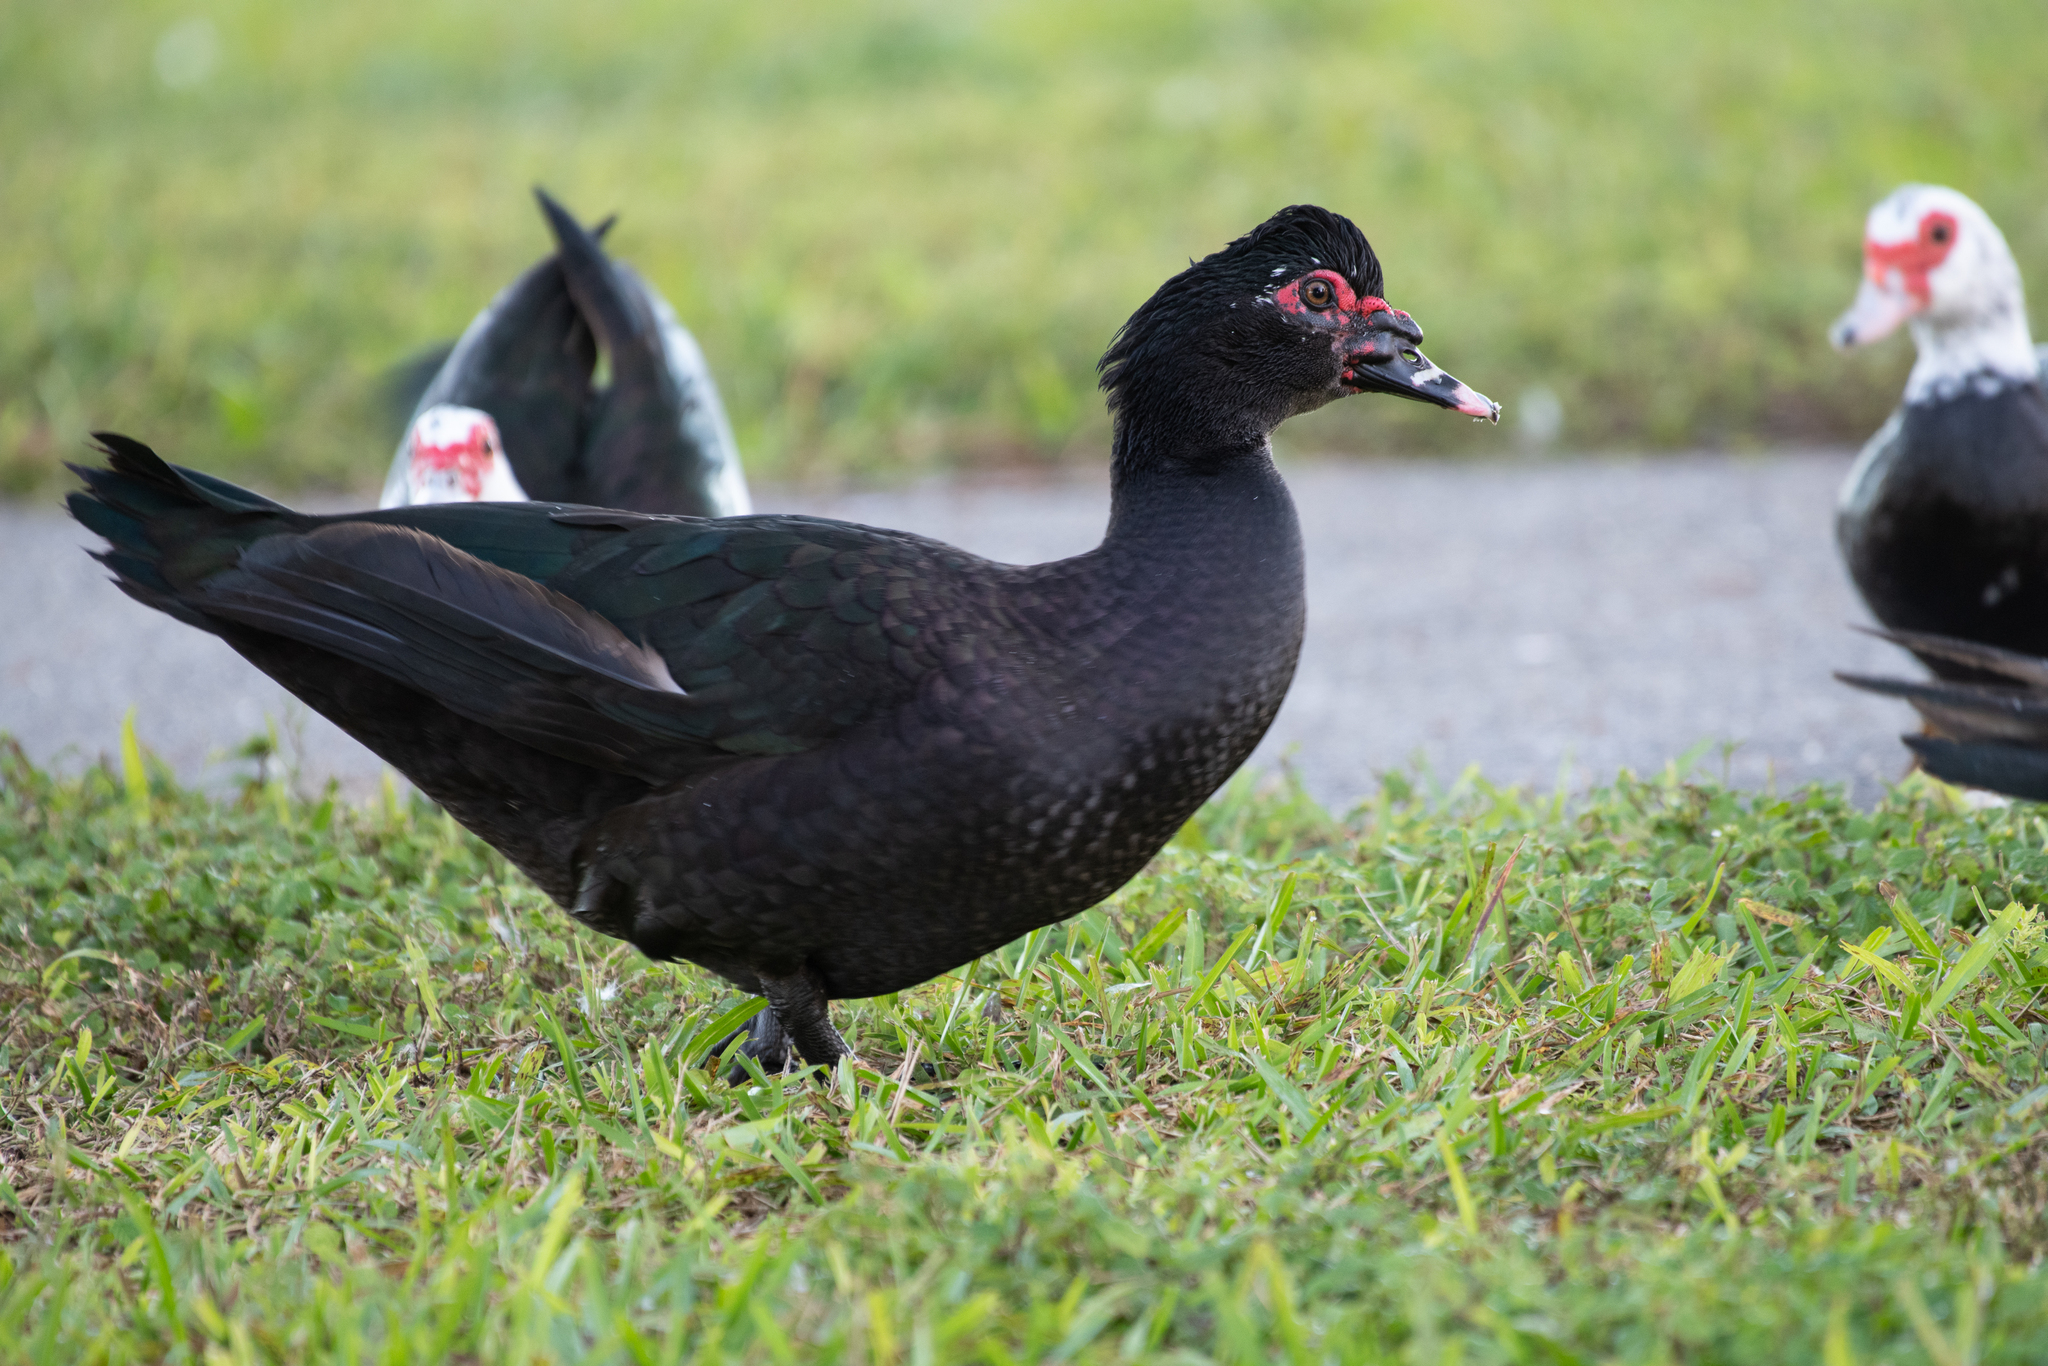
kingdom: Animalia
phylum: Chordata
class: Aves
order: Anseriformes
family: Anatidae
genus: Cairina
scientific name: Cairina moschata
